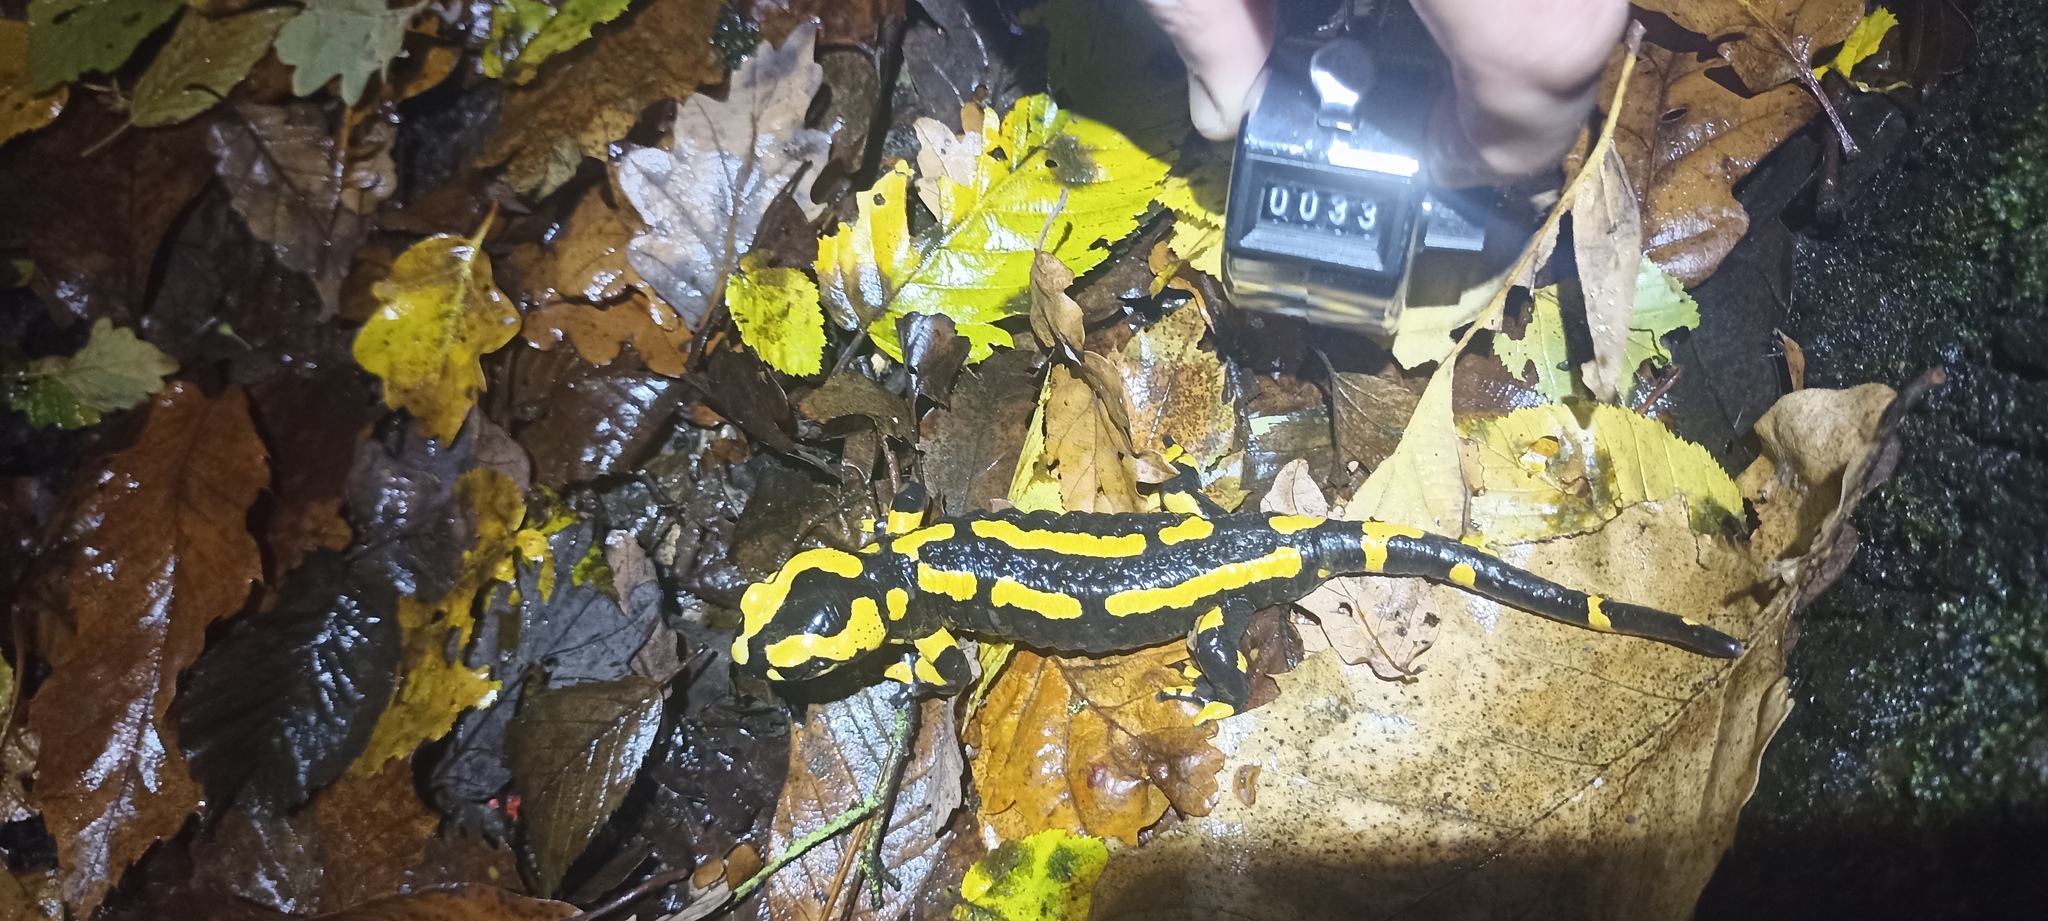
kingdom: Animalia
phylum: Chordata
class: Amphibia
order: Caudata
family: Salamandridae
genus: Salamandra
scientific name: Salamandra salamandra
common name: Fire salamander
